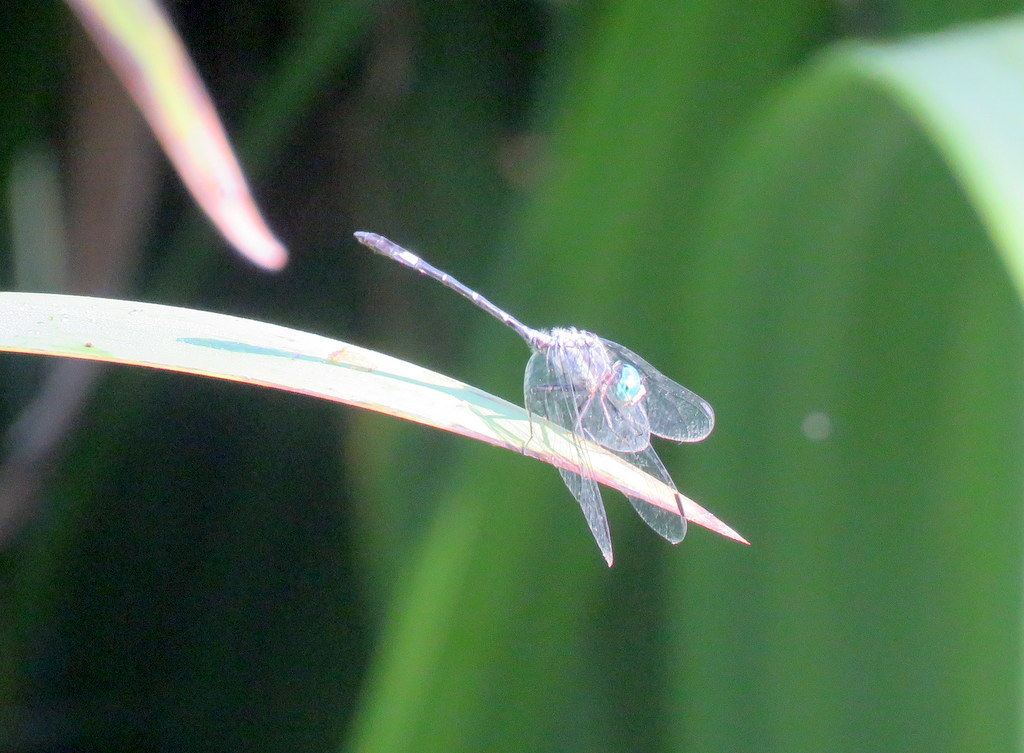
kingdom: Animalia
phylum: Arthropoda
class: Insecta
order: Odonata
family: Libellulidae
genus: Micrathyria
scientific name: Micrathyria hypodidyma
